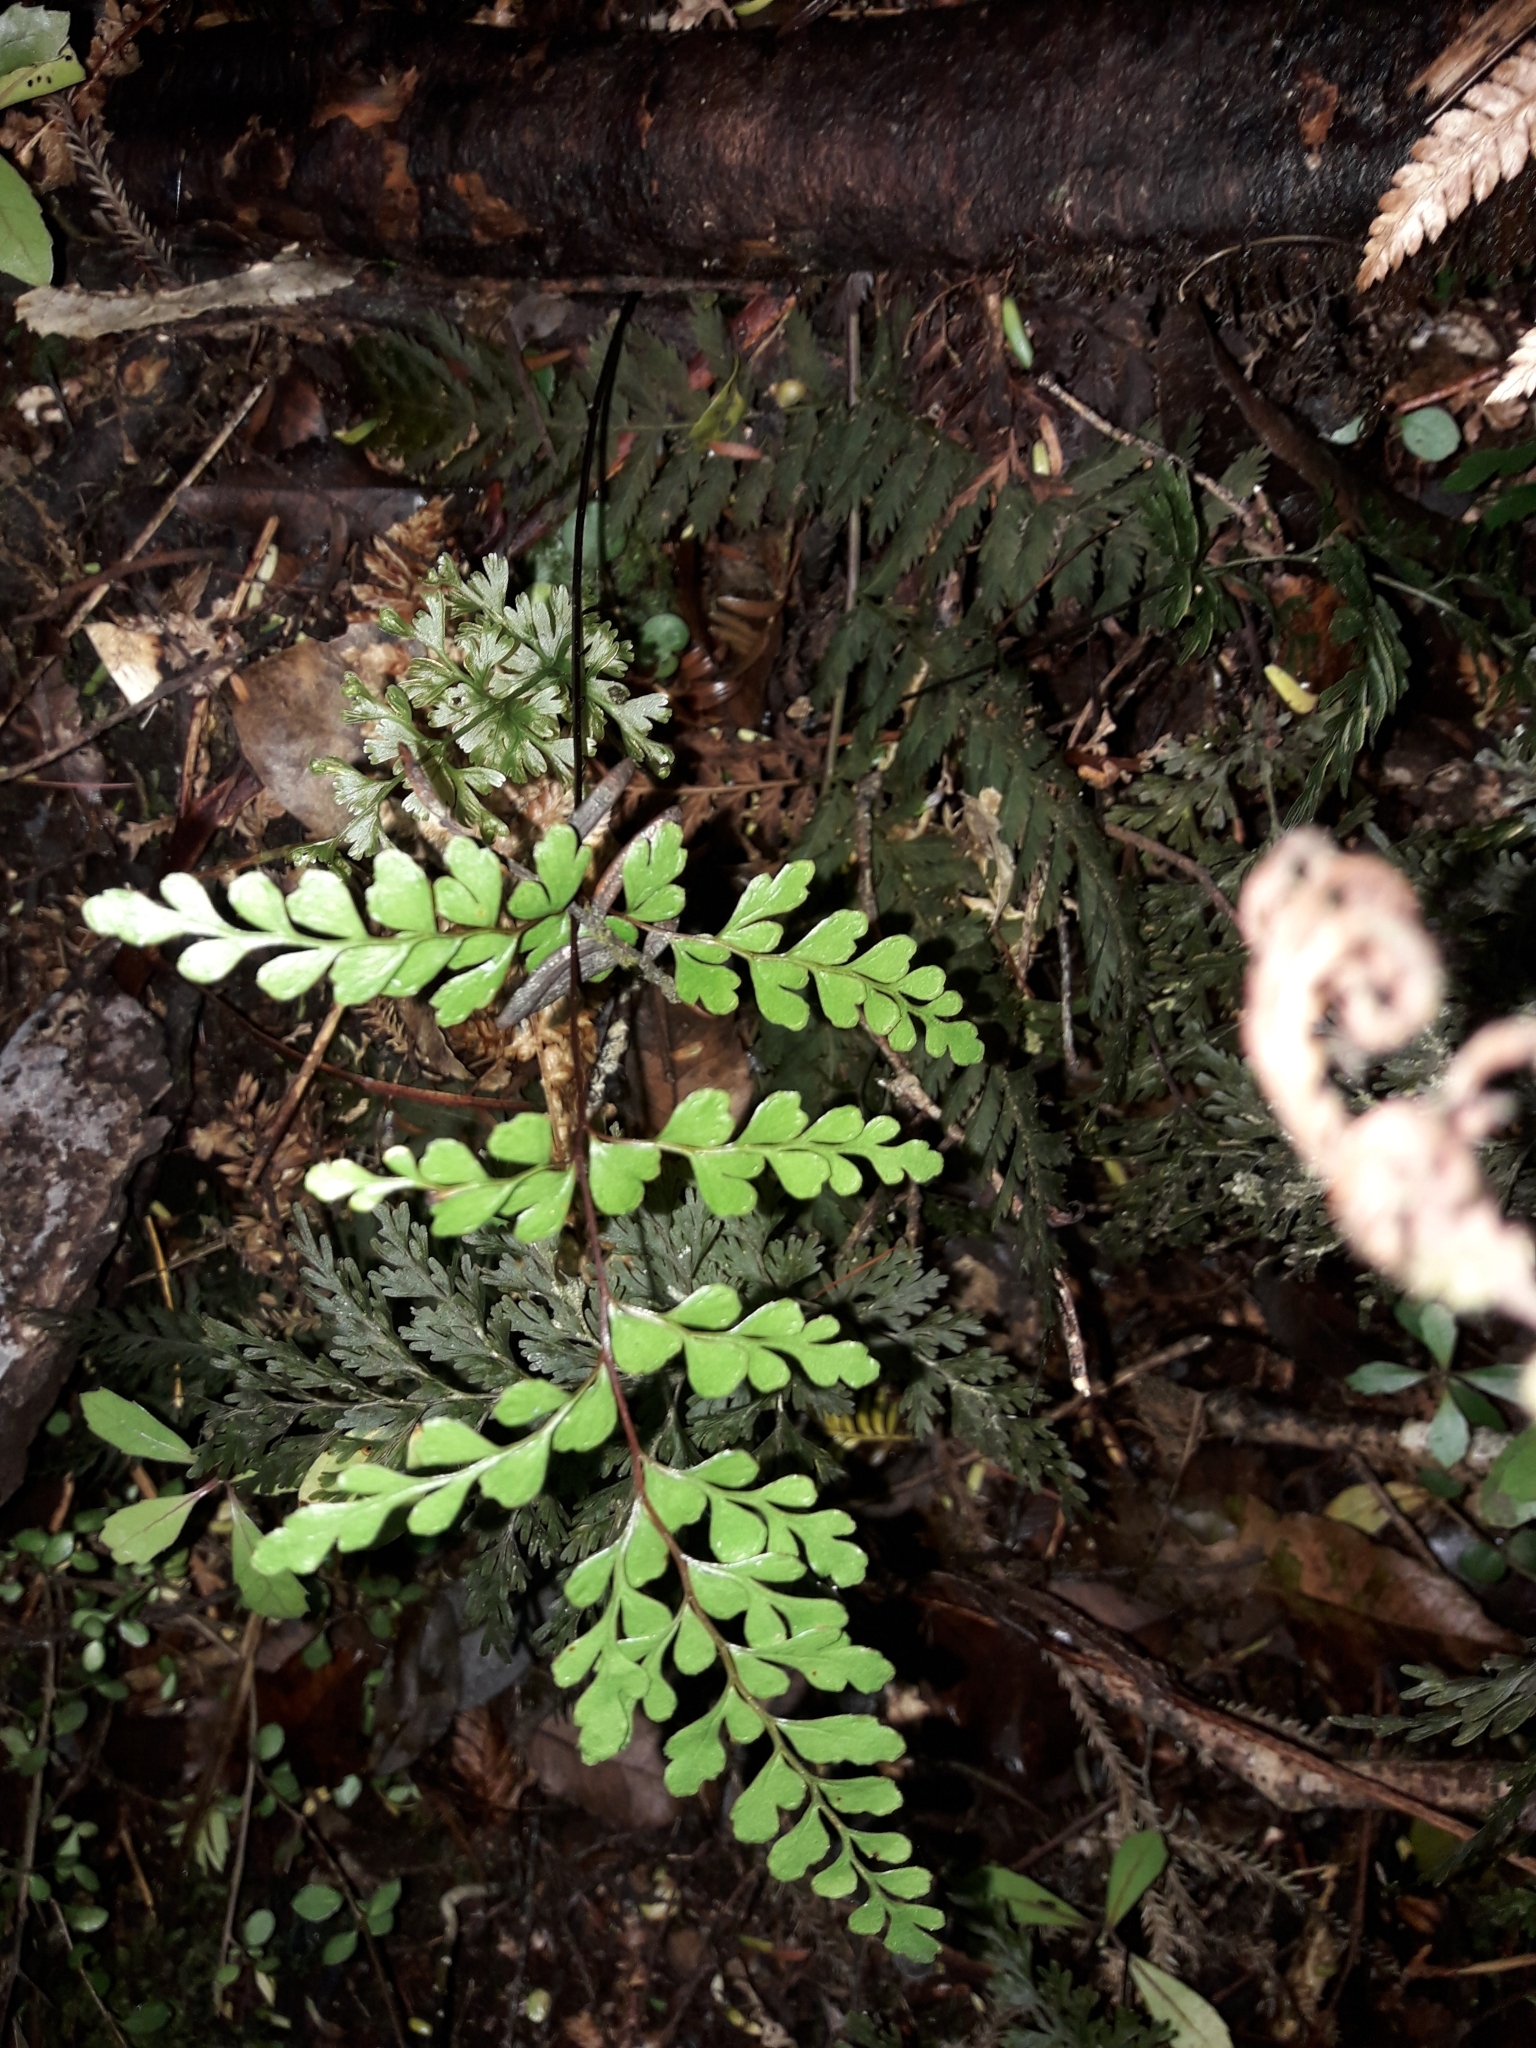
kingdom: Plantae
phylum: Tracheophyta
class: Polypodiopsida
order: Polypodiales
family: Lindsaeaceae
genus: Lindsaea
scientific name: Lindsaea trichomanoides
